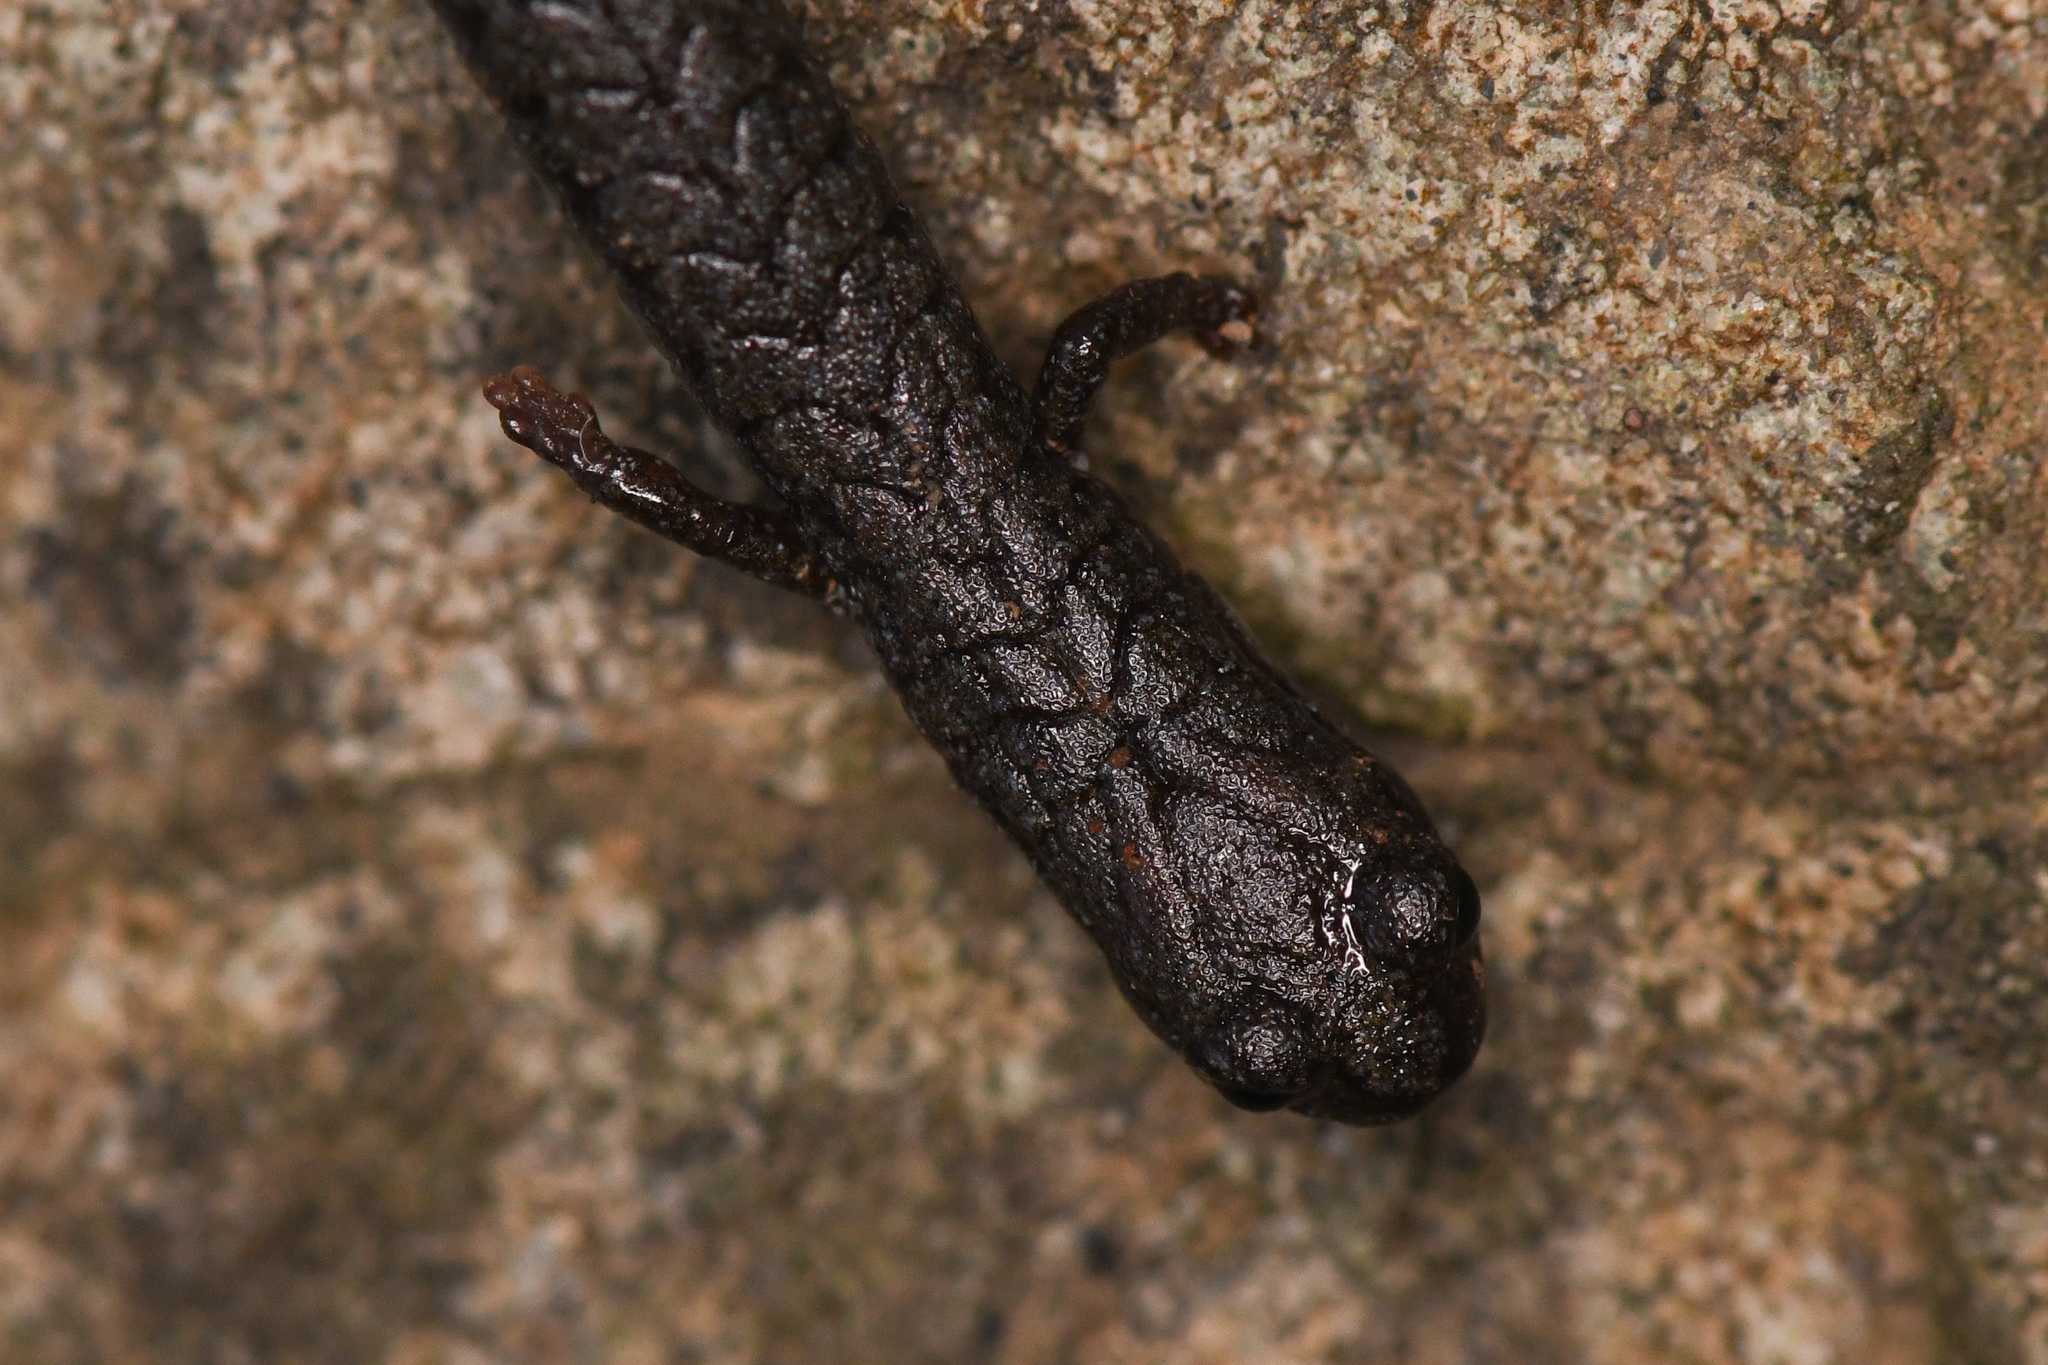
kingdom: Animalia
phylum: Chordata
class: Amphibia
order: Caudata
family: Plethodontidae
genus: Batrachoseps
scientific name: Batrachoseps incognitus
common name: San simeon slender salamander
